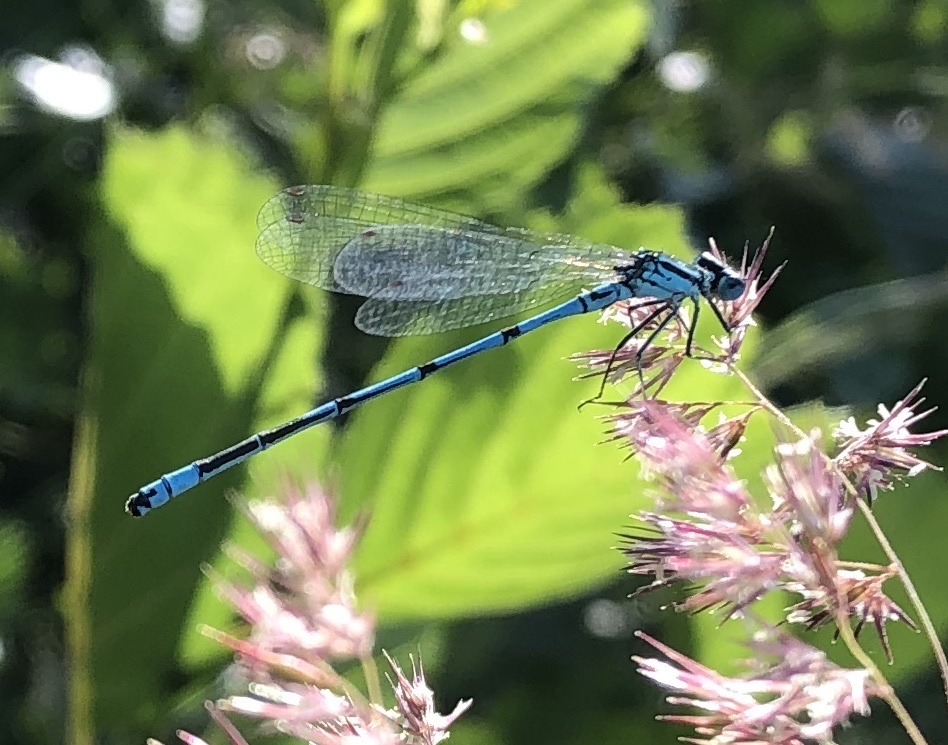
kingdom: Animalia
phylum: Arthropoda
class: Insecta
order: Odonata
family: Coenagrionidae
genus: Coenagrion
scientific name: Coenagrion puella
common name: Azure damselfly
